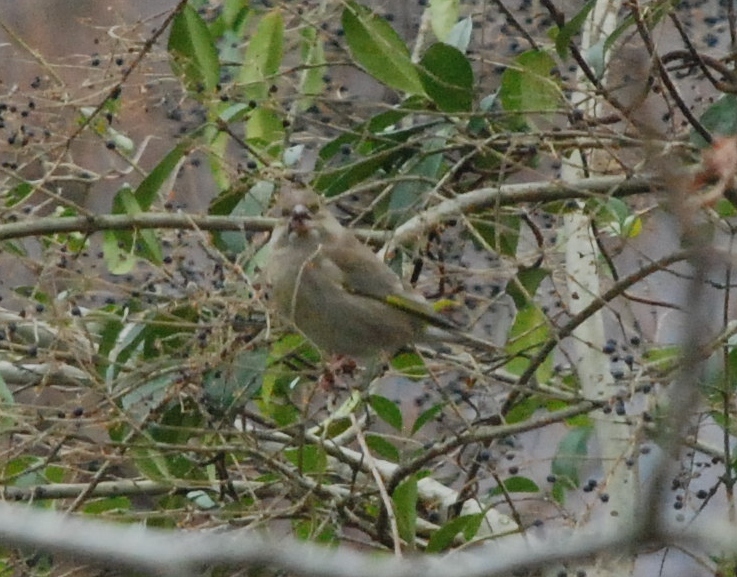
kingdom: Plantae
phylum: Tracheophyta
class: Liliopsida
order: Poales
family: Poaceae
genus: Chloris
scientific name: Chloris chloris
